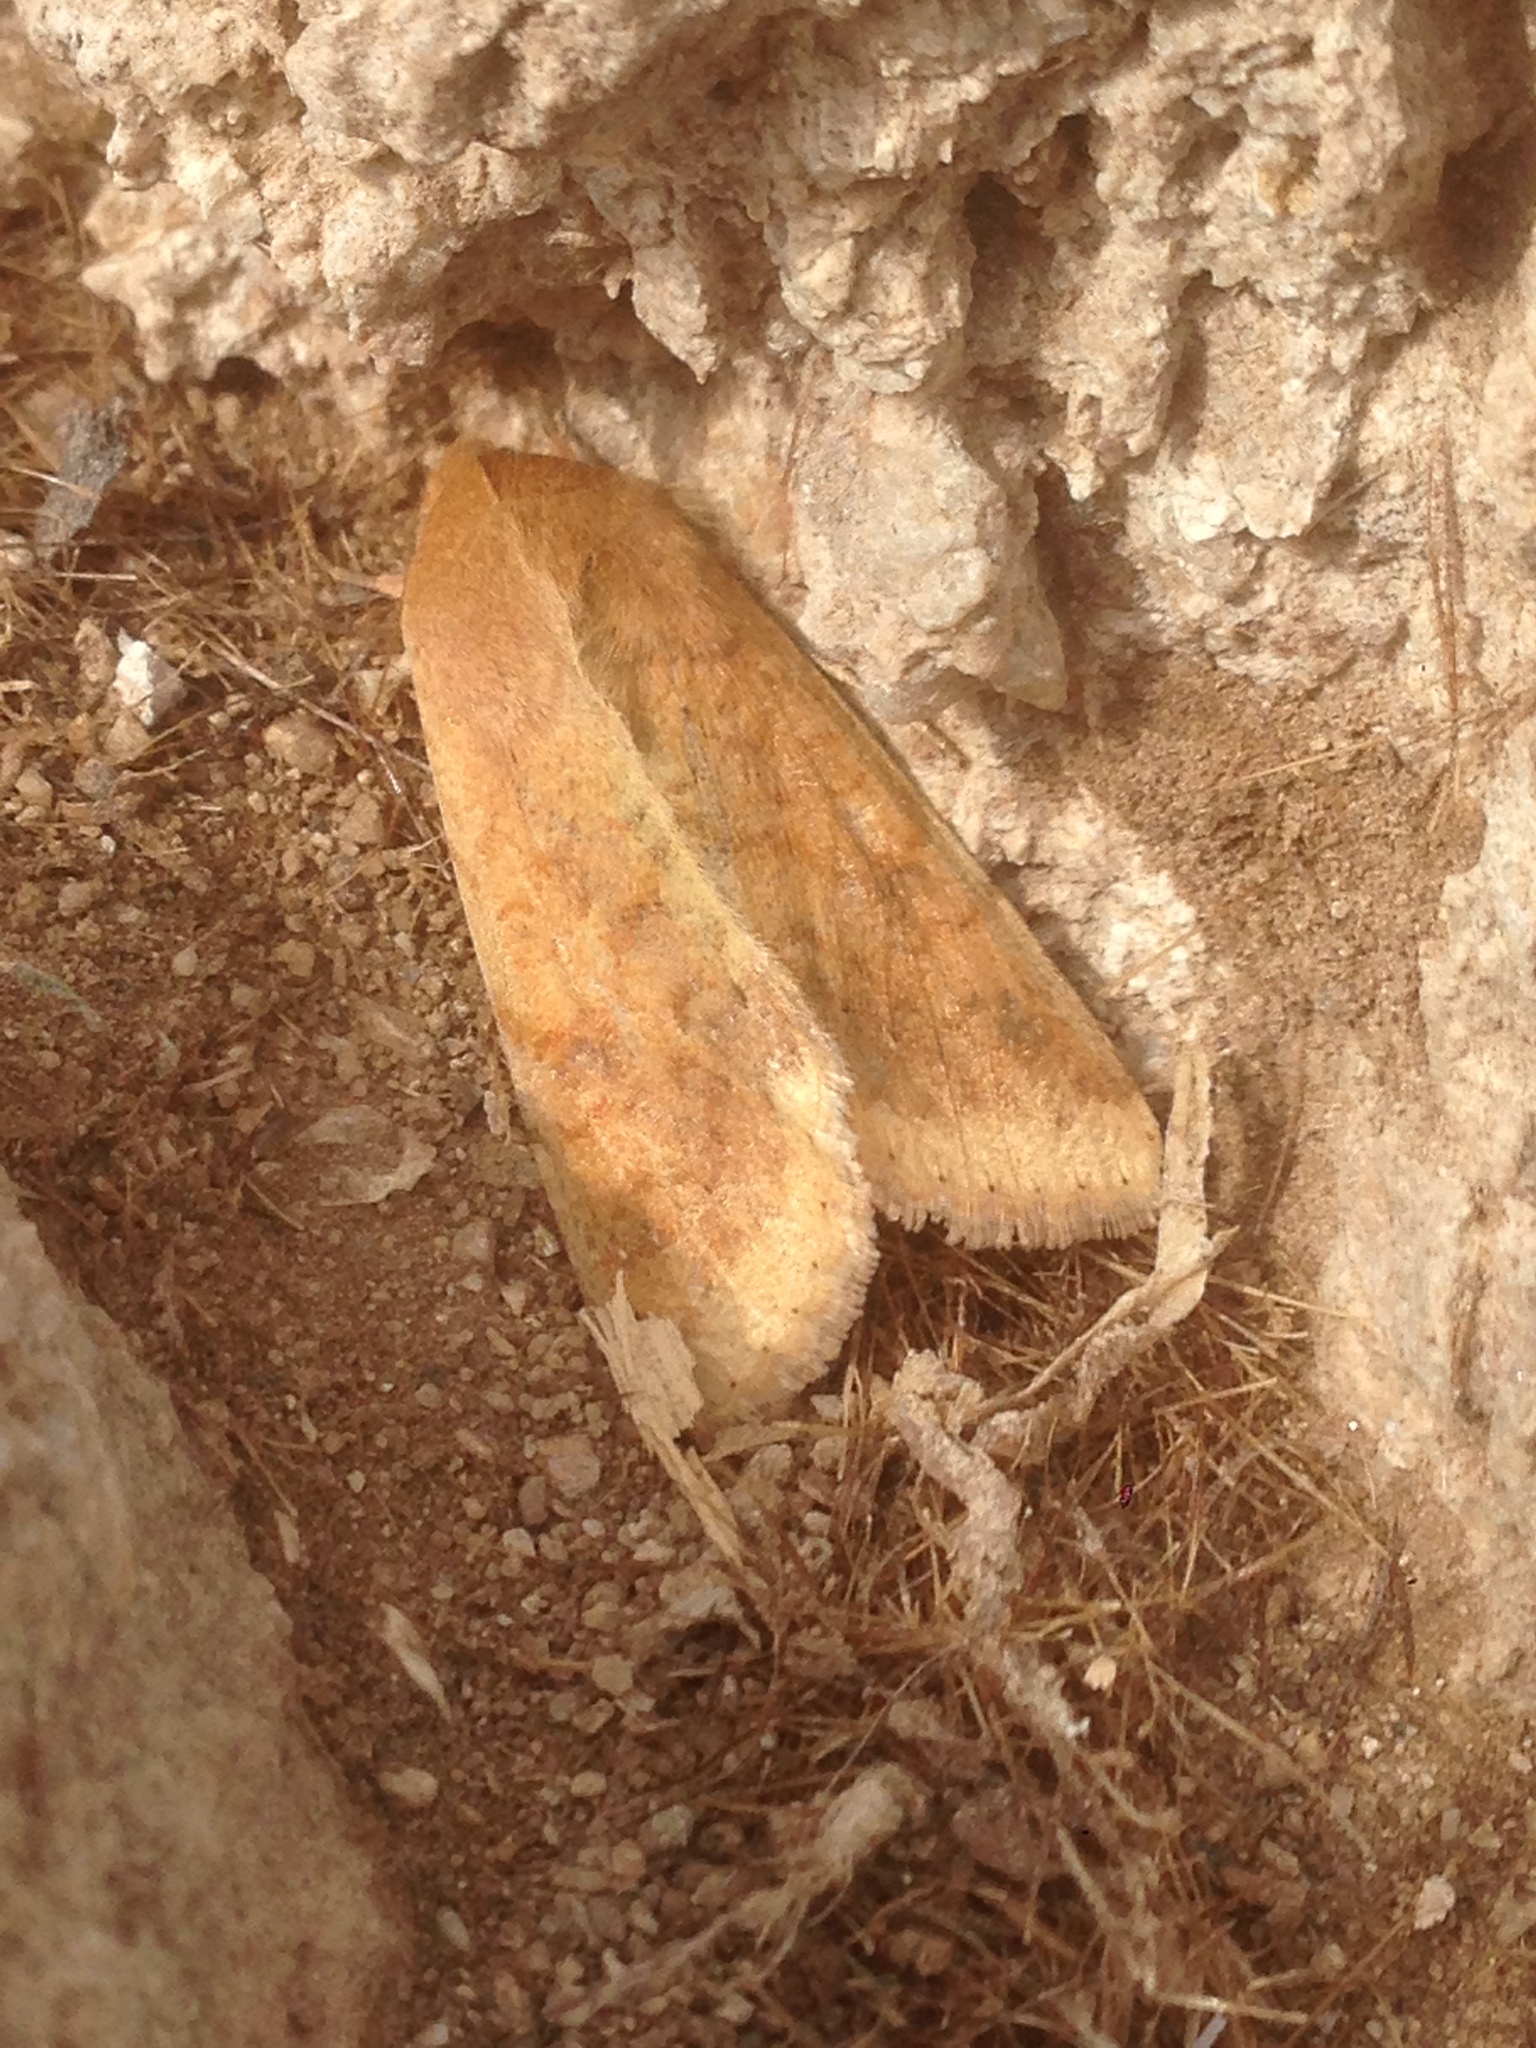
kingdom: Animalia
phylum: Arthropoda
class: Insecta
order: Lepidoptera
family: Noctuidae
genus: Helicoverpa
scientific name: Helicoverpa zea
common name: Bollworm
